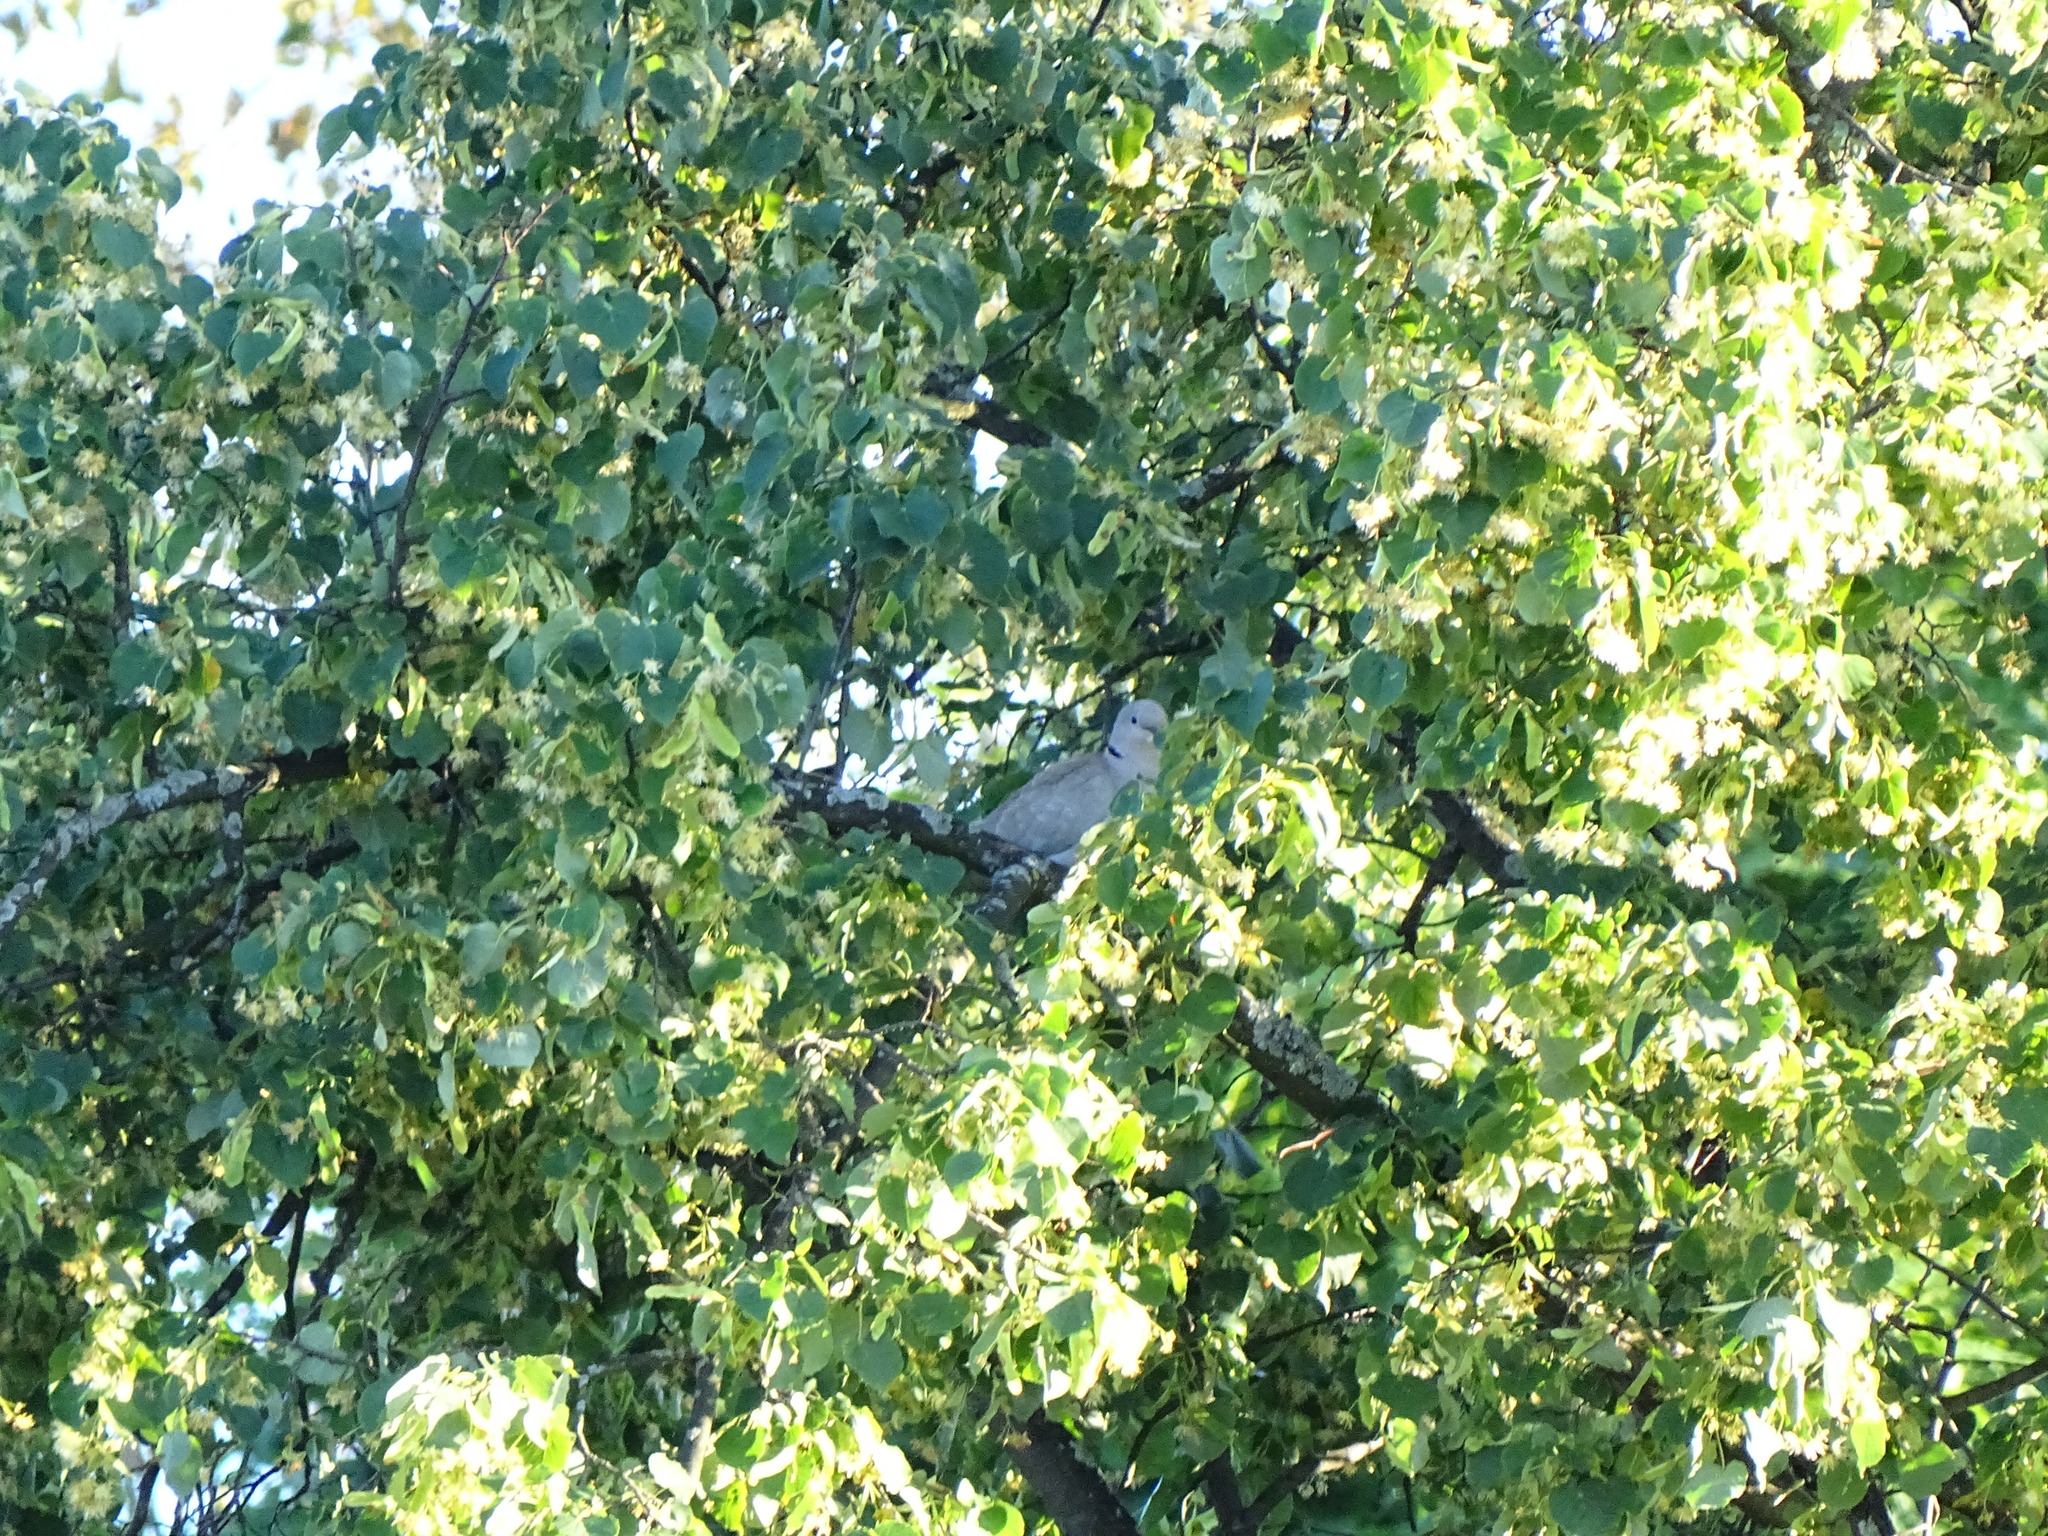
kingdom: Animalia
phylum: Chordata
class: Aves
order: Columbiformes
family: Columbidae
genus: Streptopelia
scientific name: Streptopelia decaocto
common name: Eurasian collared dove
